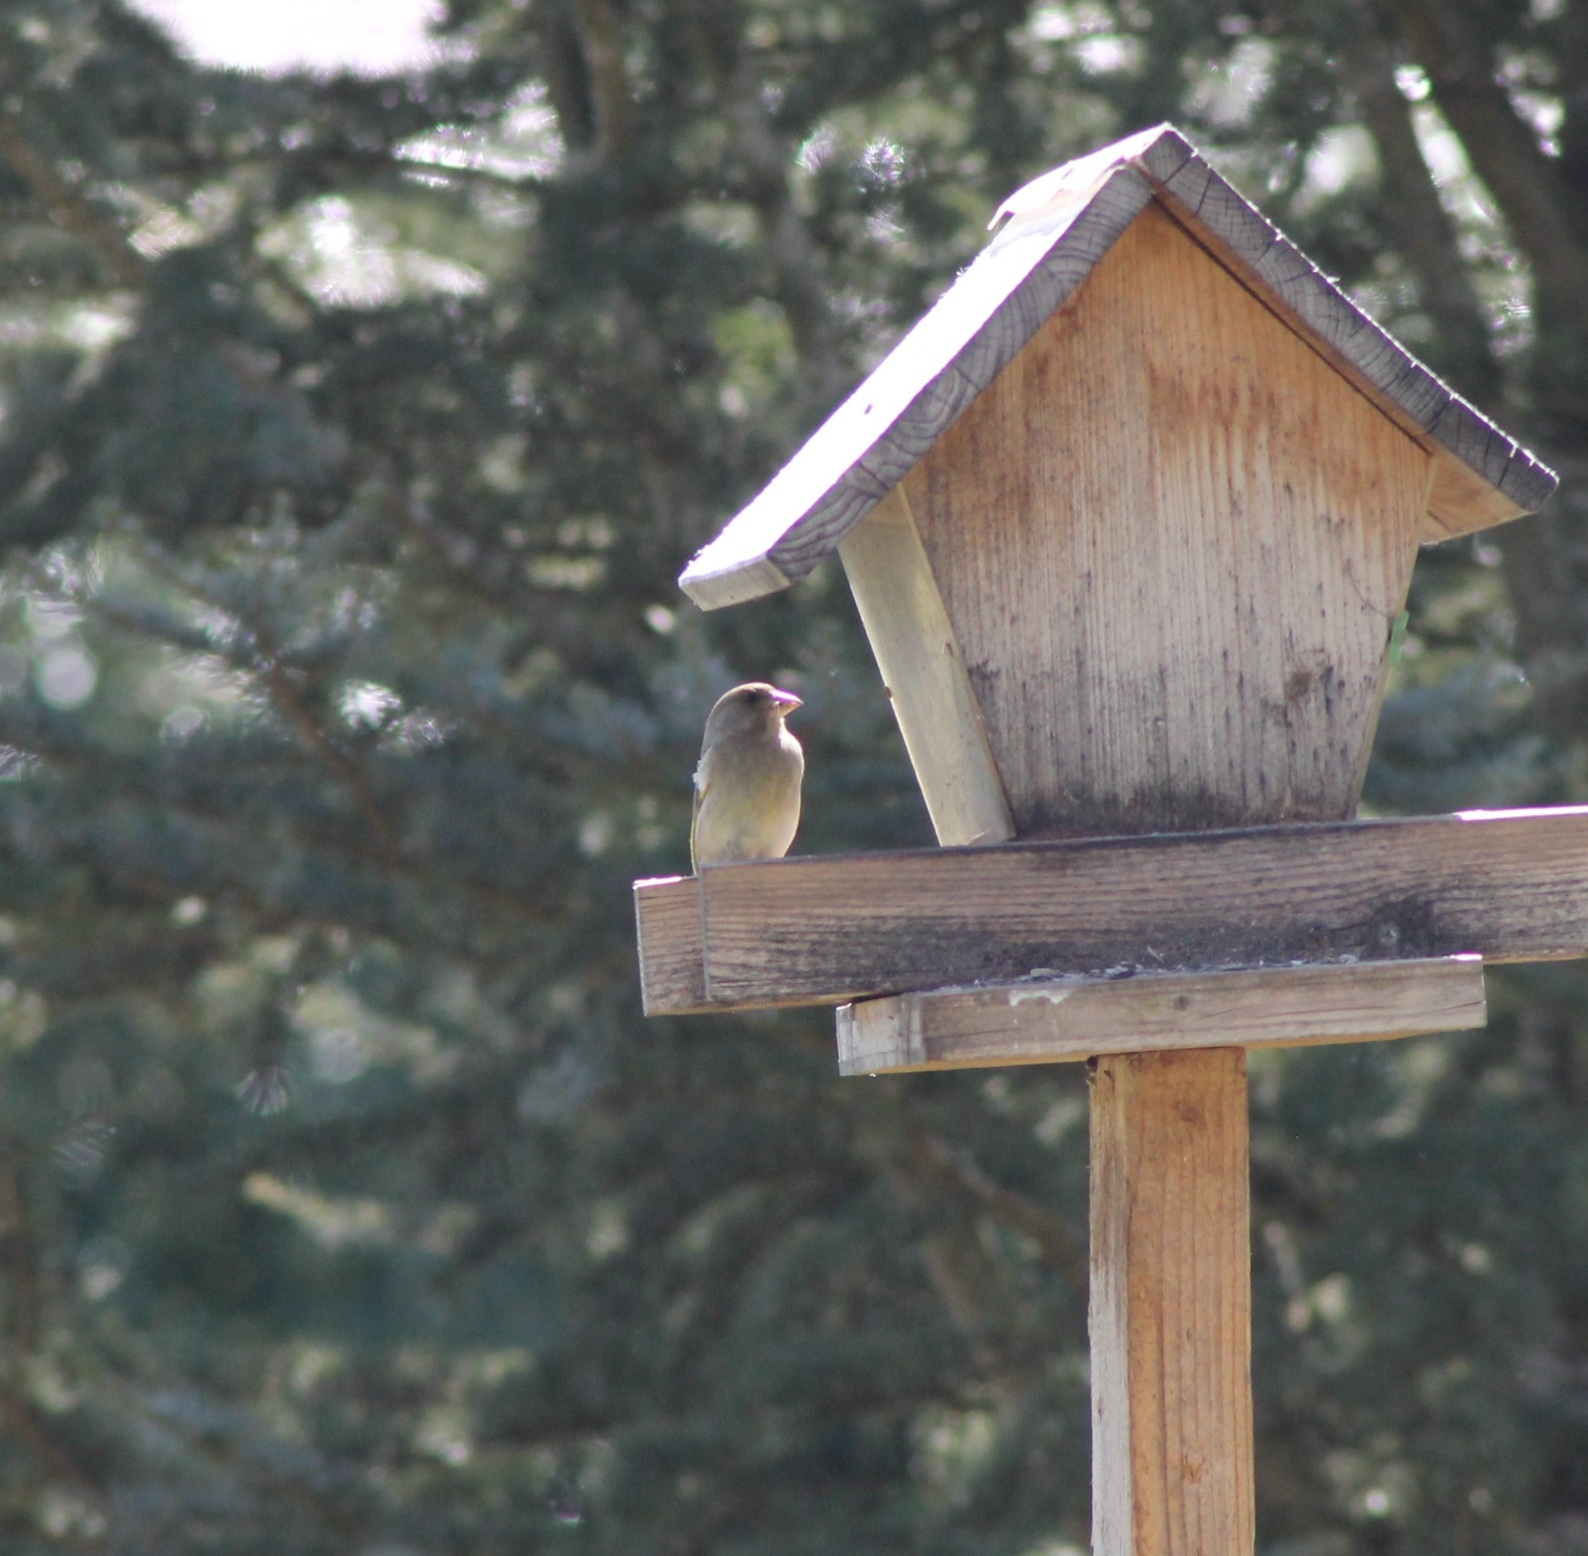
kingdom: Plantae
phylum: Tracheophyta
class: Liliopsida
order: Poales
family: Poaceae
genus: Chloris
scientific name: Chloris chloris
